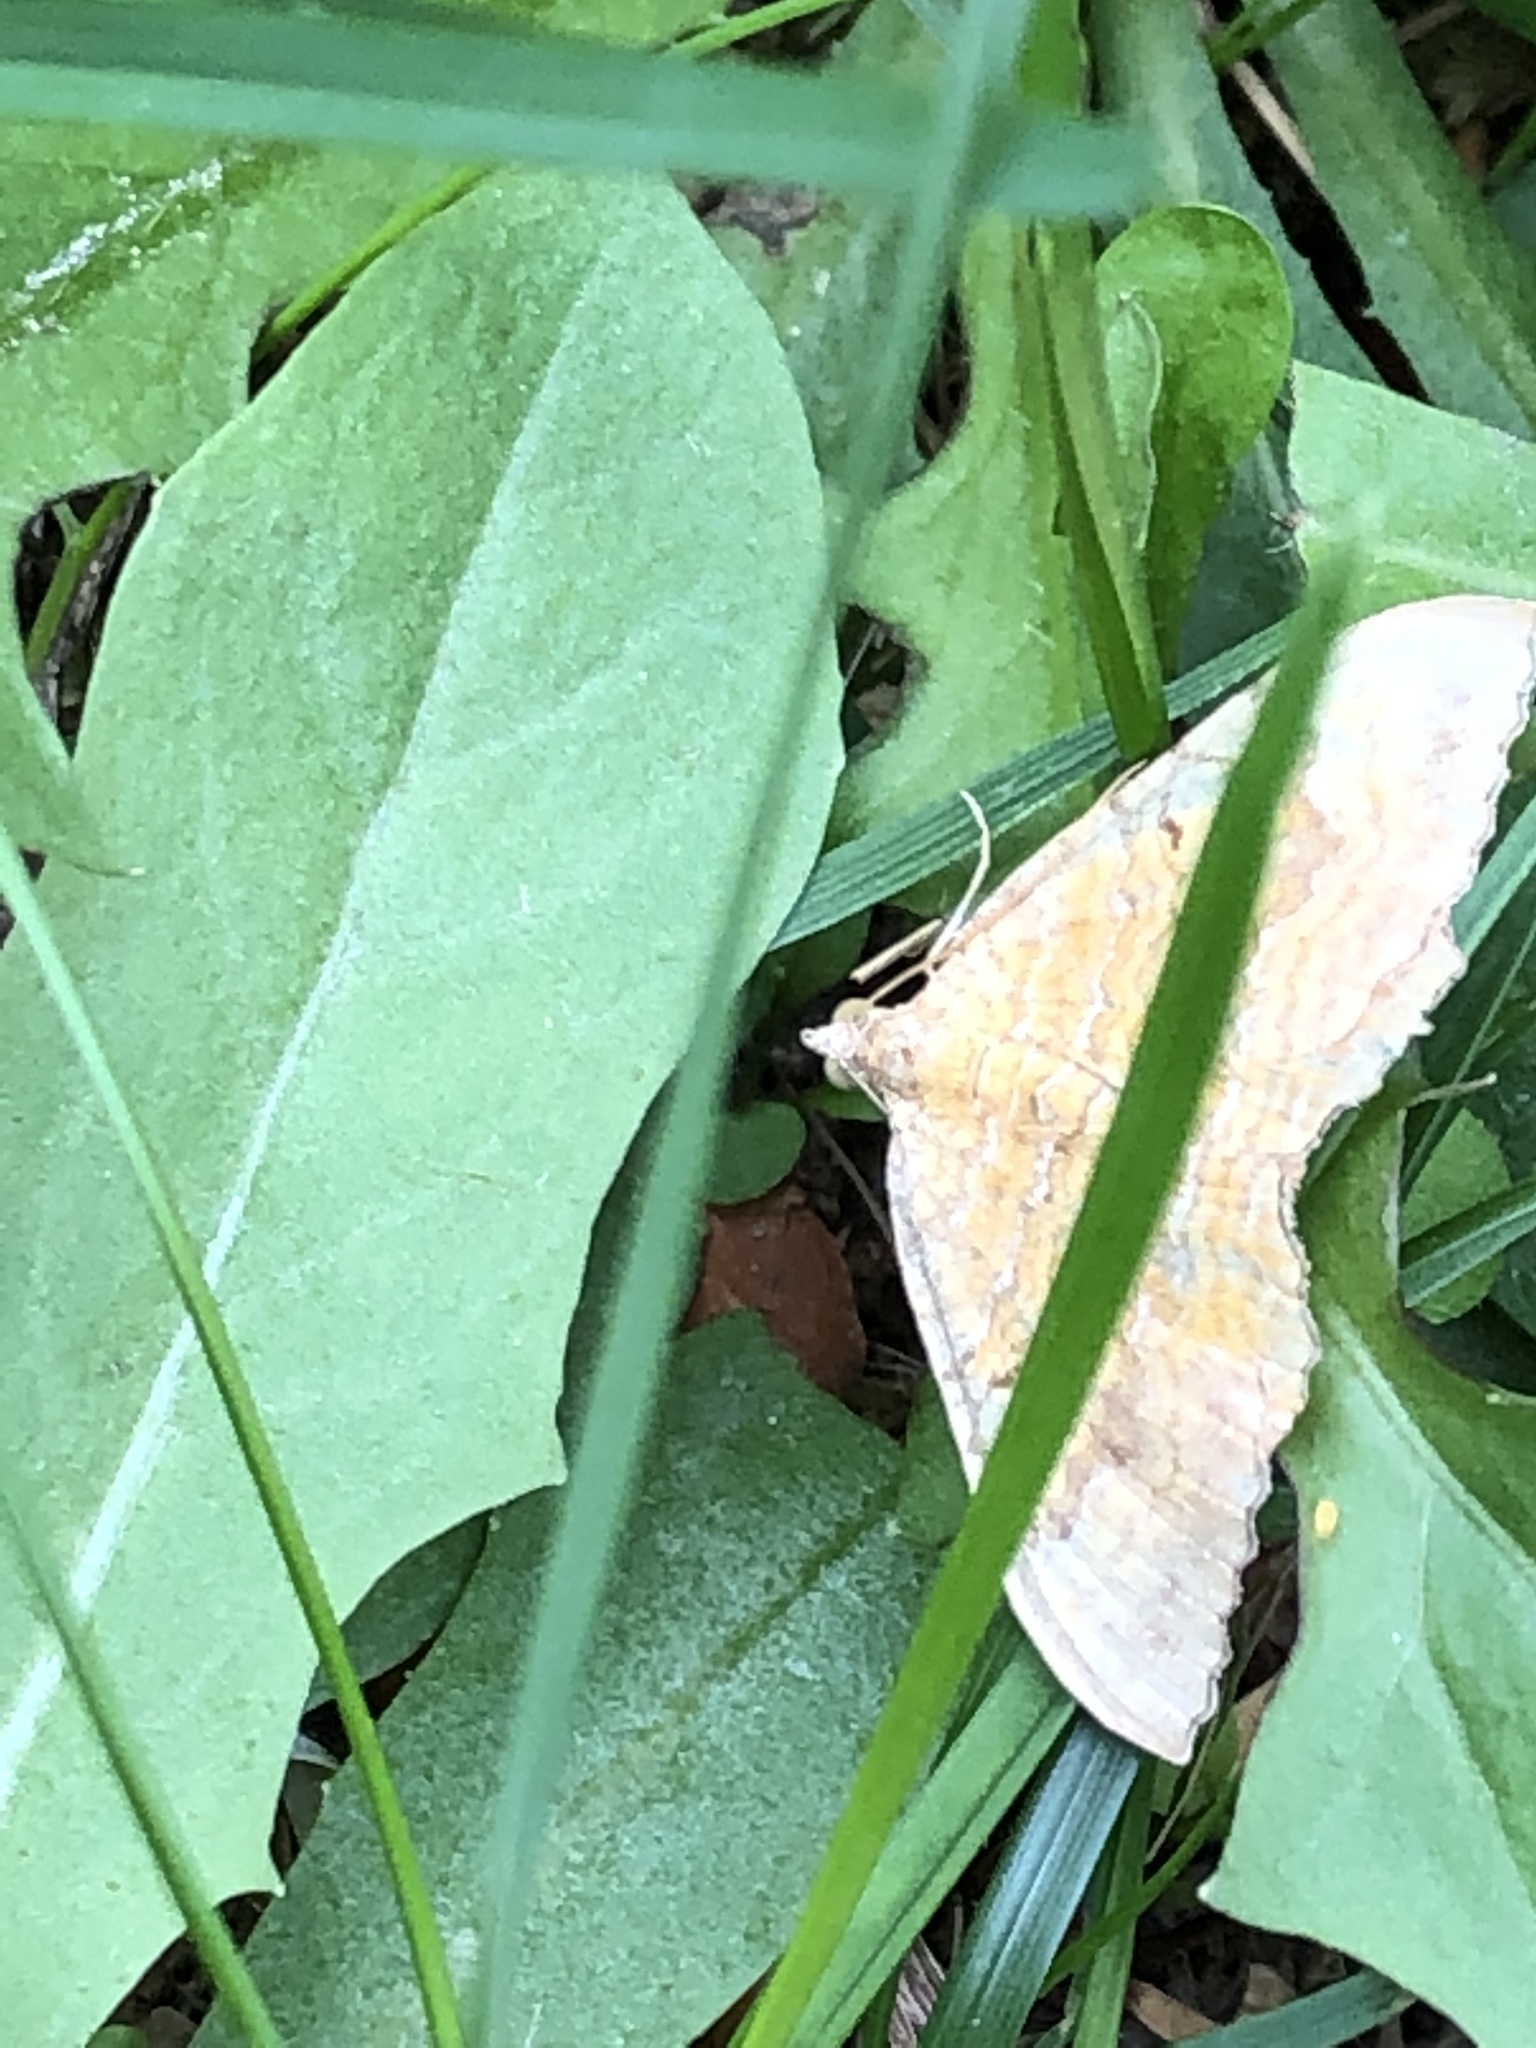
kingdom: Animalia
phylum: Arthropoda
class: Insecta
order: Lepidoptera
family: Geometridae
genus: Camptogramma
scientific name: Camptogramma bilineata
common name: Yellow shell
